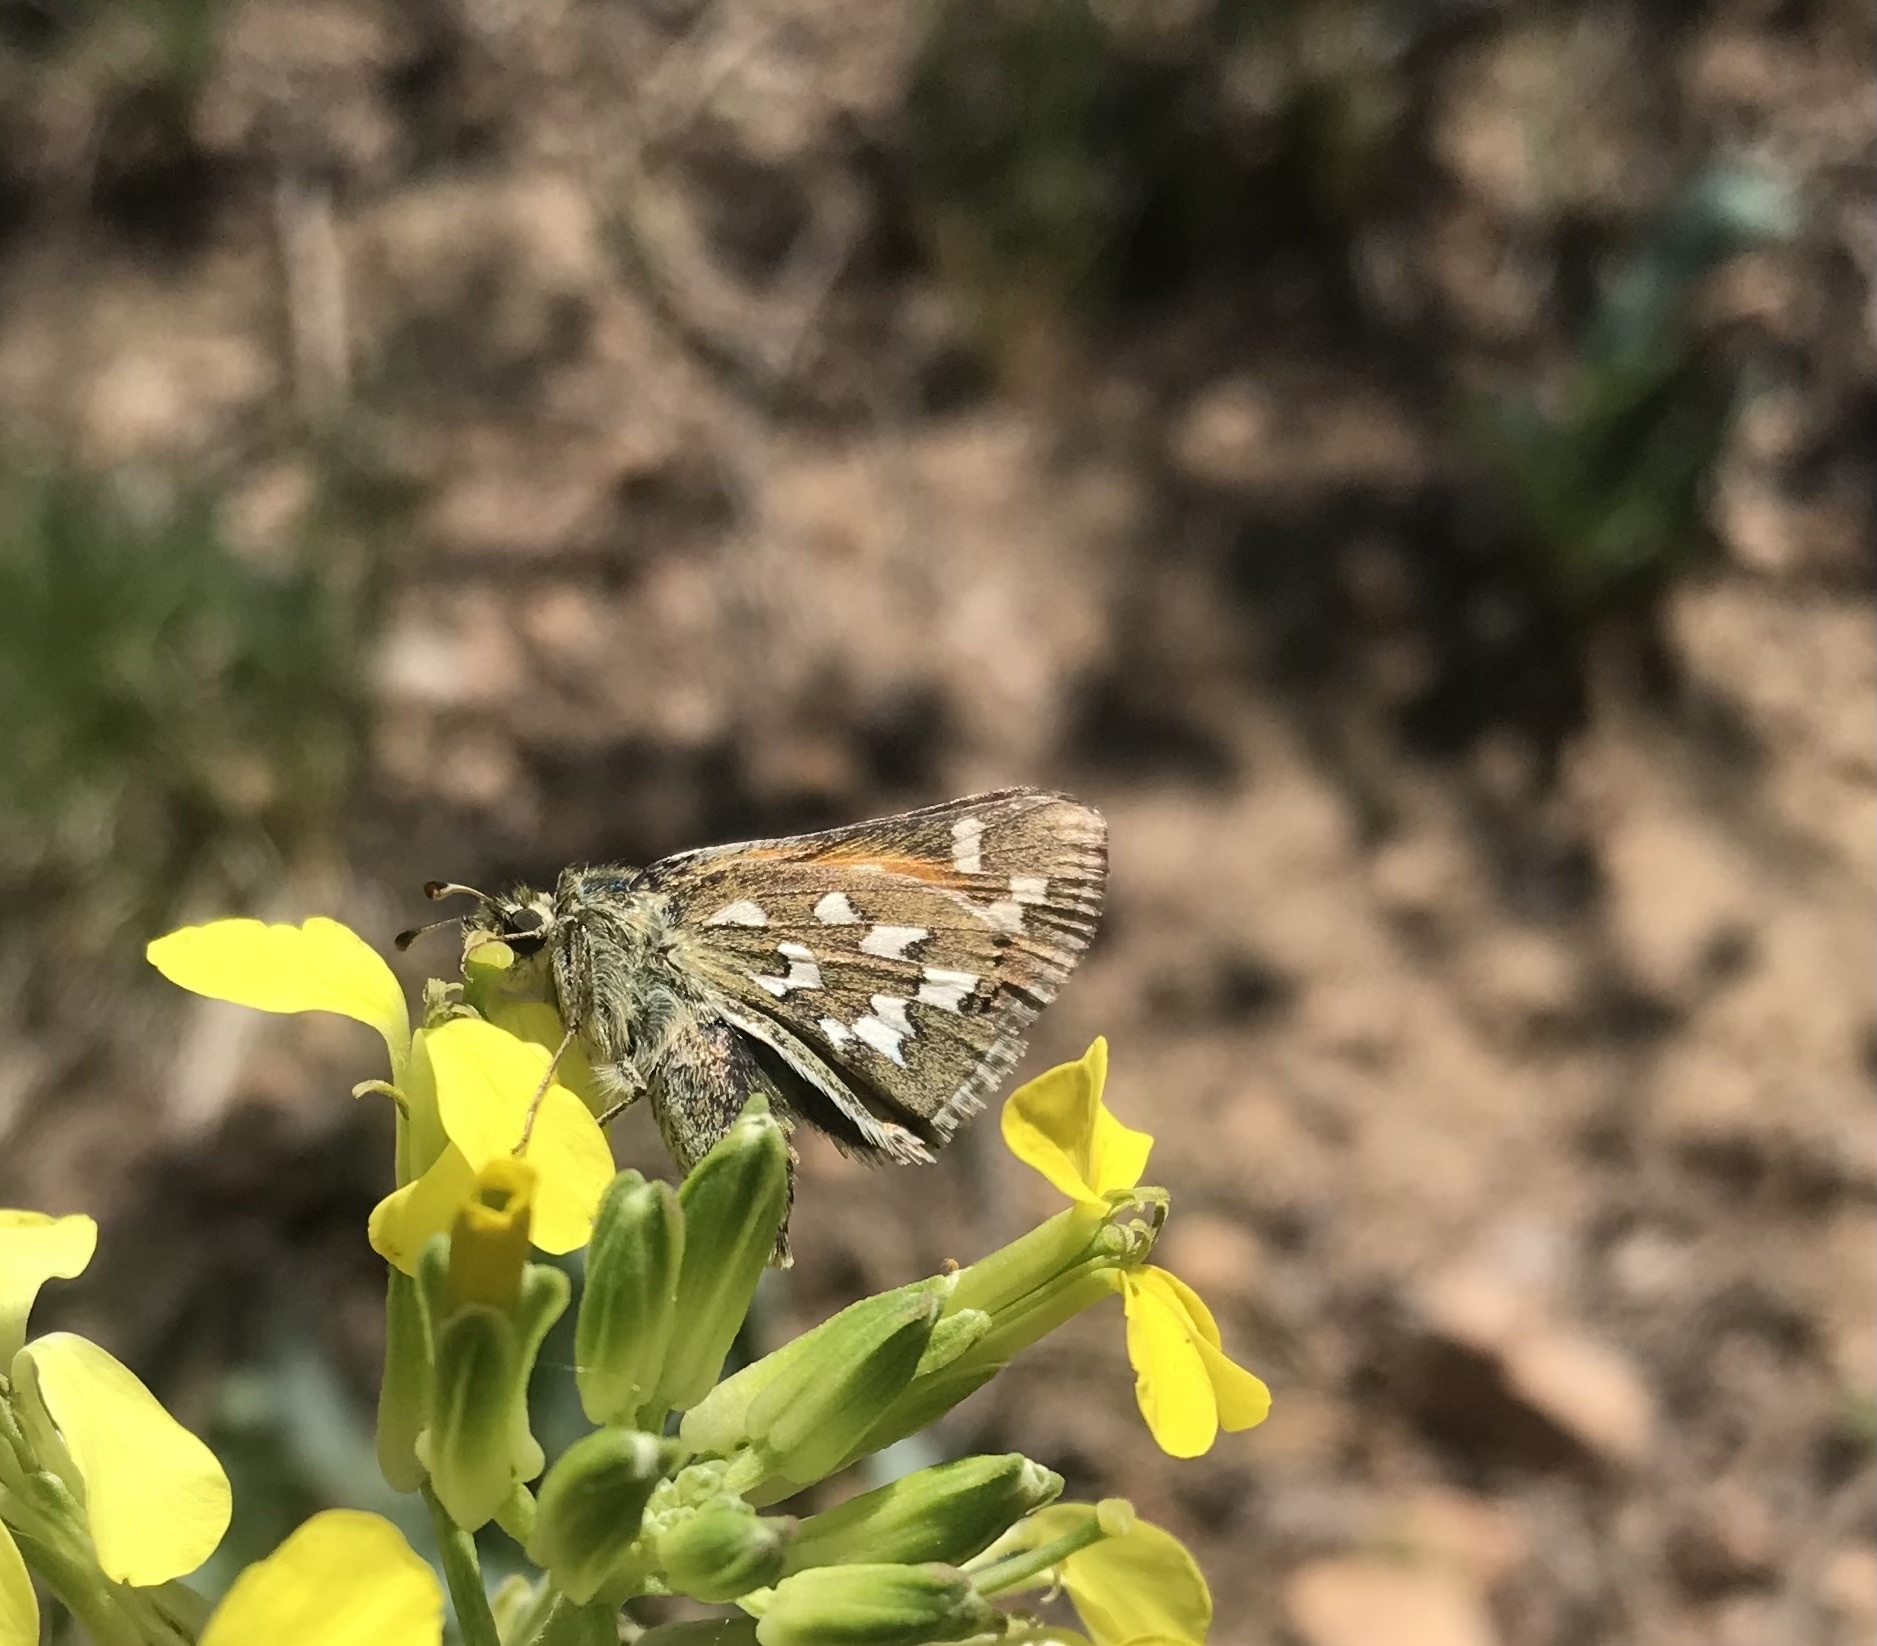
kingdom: Animalia
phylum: Arthropoda
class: Insecta
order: Lepidoptera
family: Hesperiidae
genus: Hesperia
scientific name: Hesperia nevada
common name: Nevada skipper
